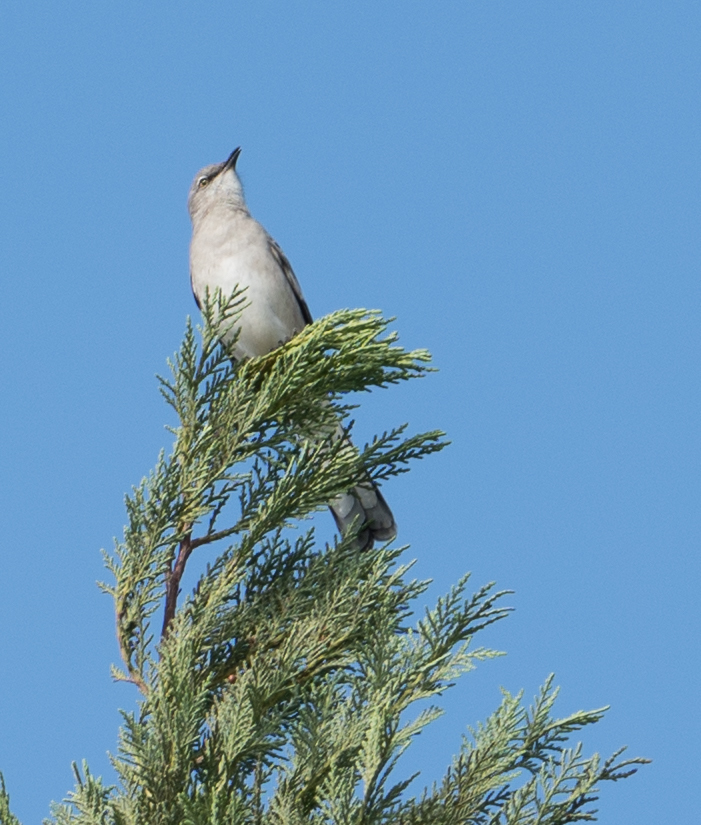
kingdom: Animalia
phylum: Chordata
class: Aves
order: Passeriformes
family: Mimidae
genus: Mimus
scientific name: Mimus polyglottos
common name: Northern mockingbird
